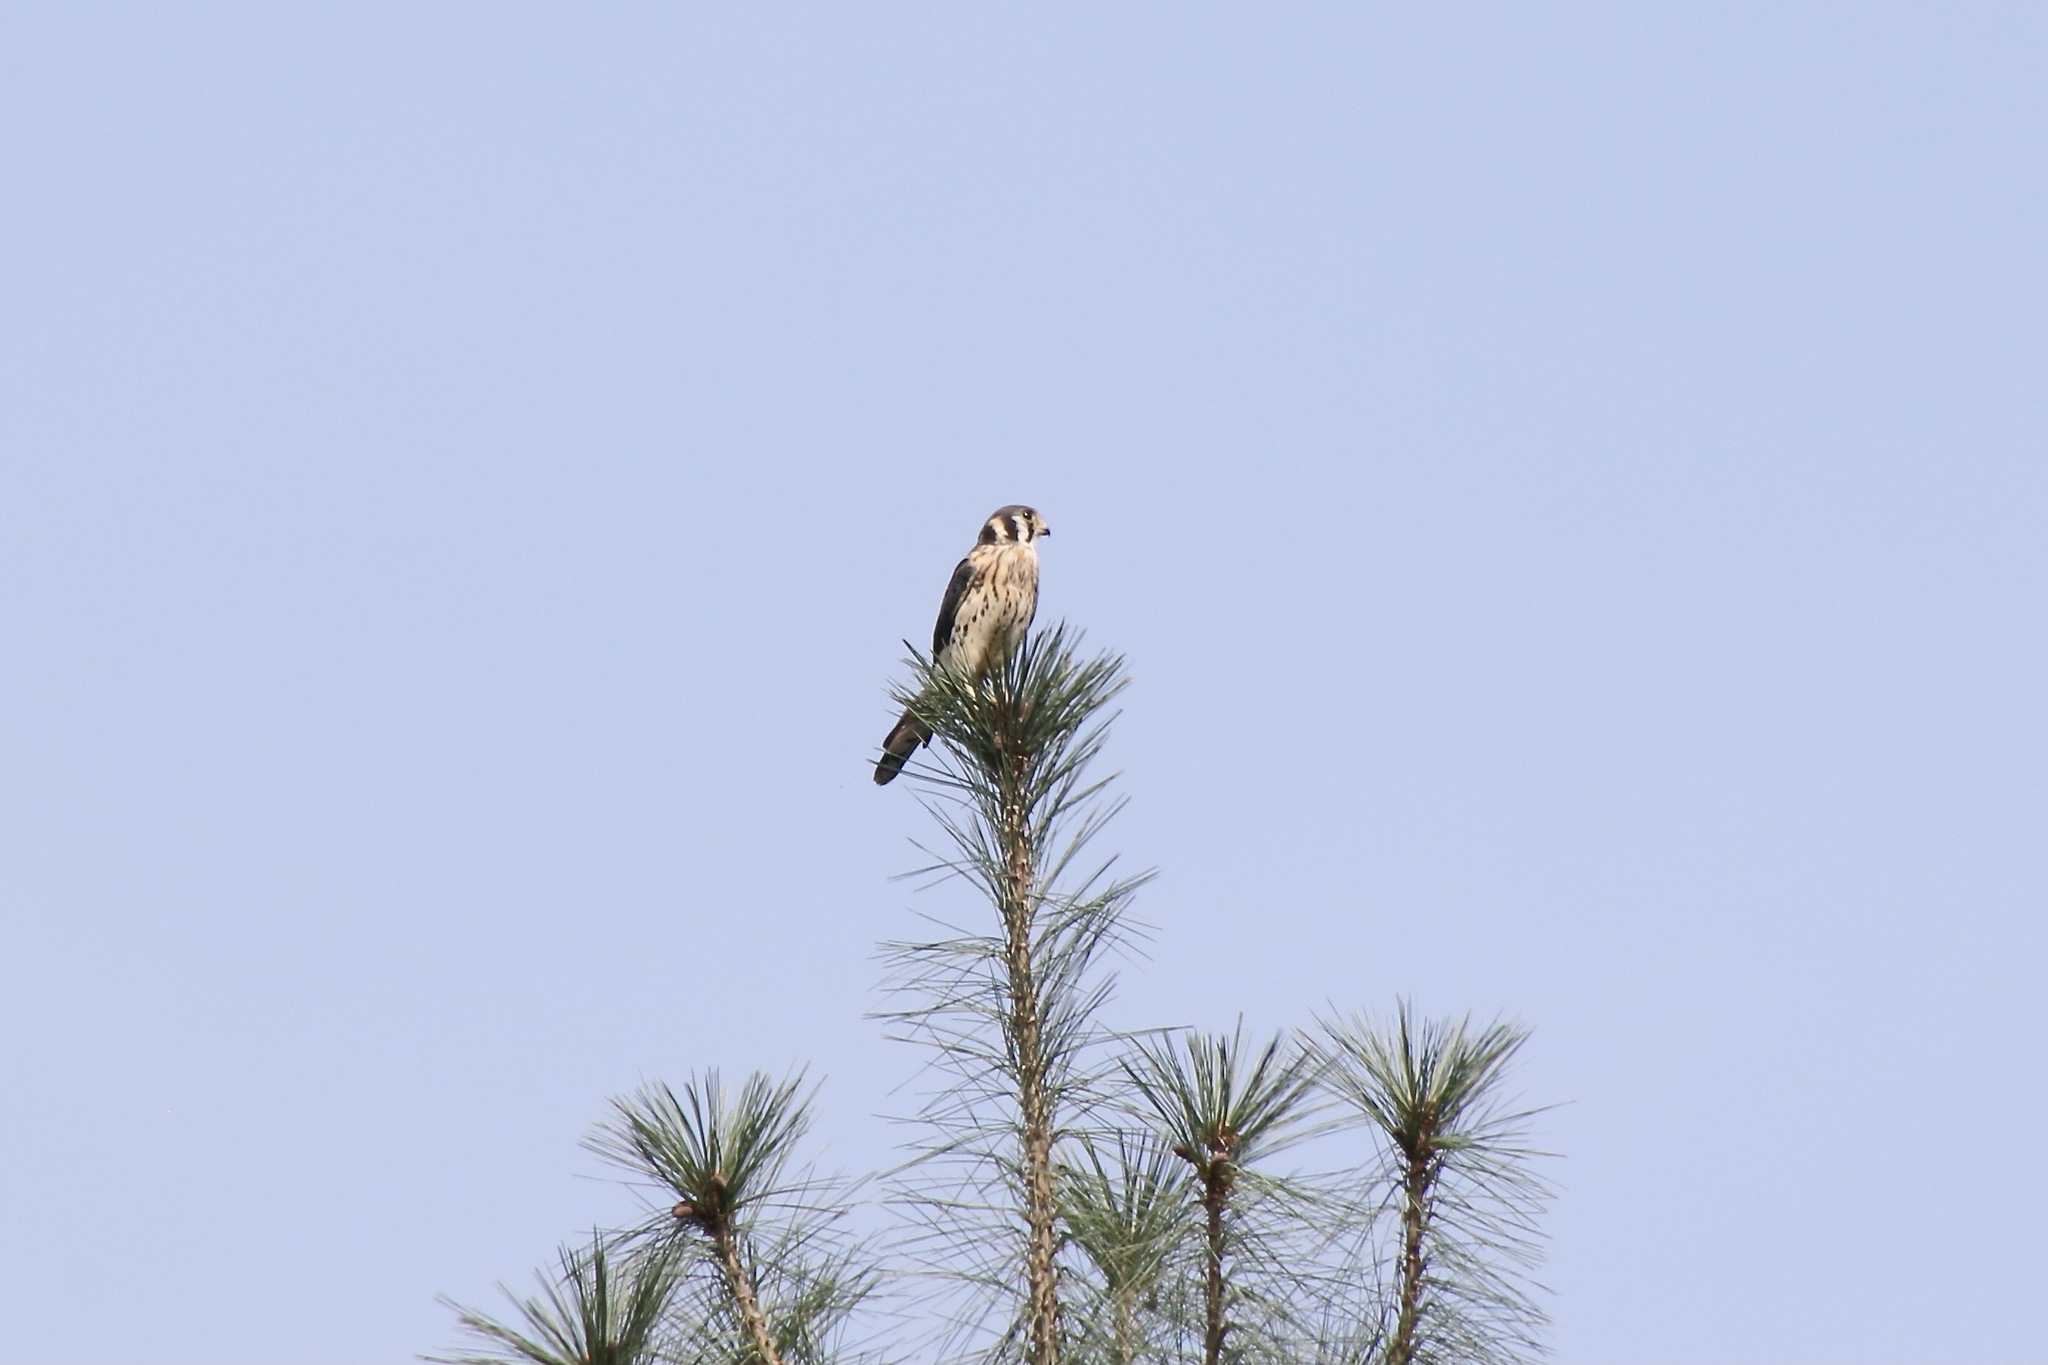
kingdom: Animalia
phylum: Chordata
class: Aves
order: Falconiformes
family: Falconidae
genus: Falco
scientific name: Falco sparverius
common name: American kestrel
